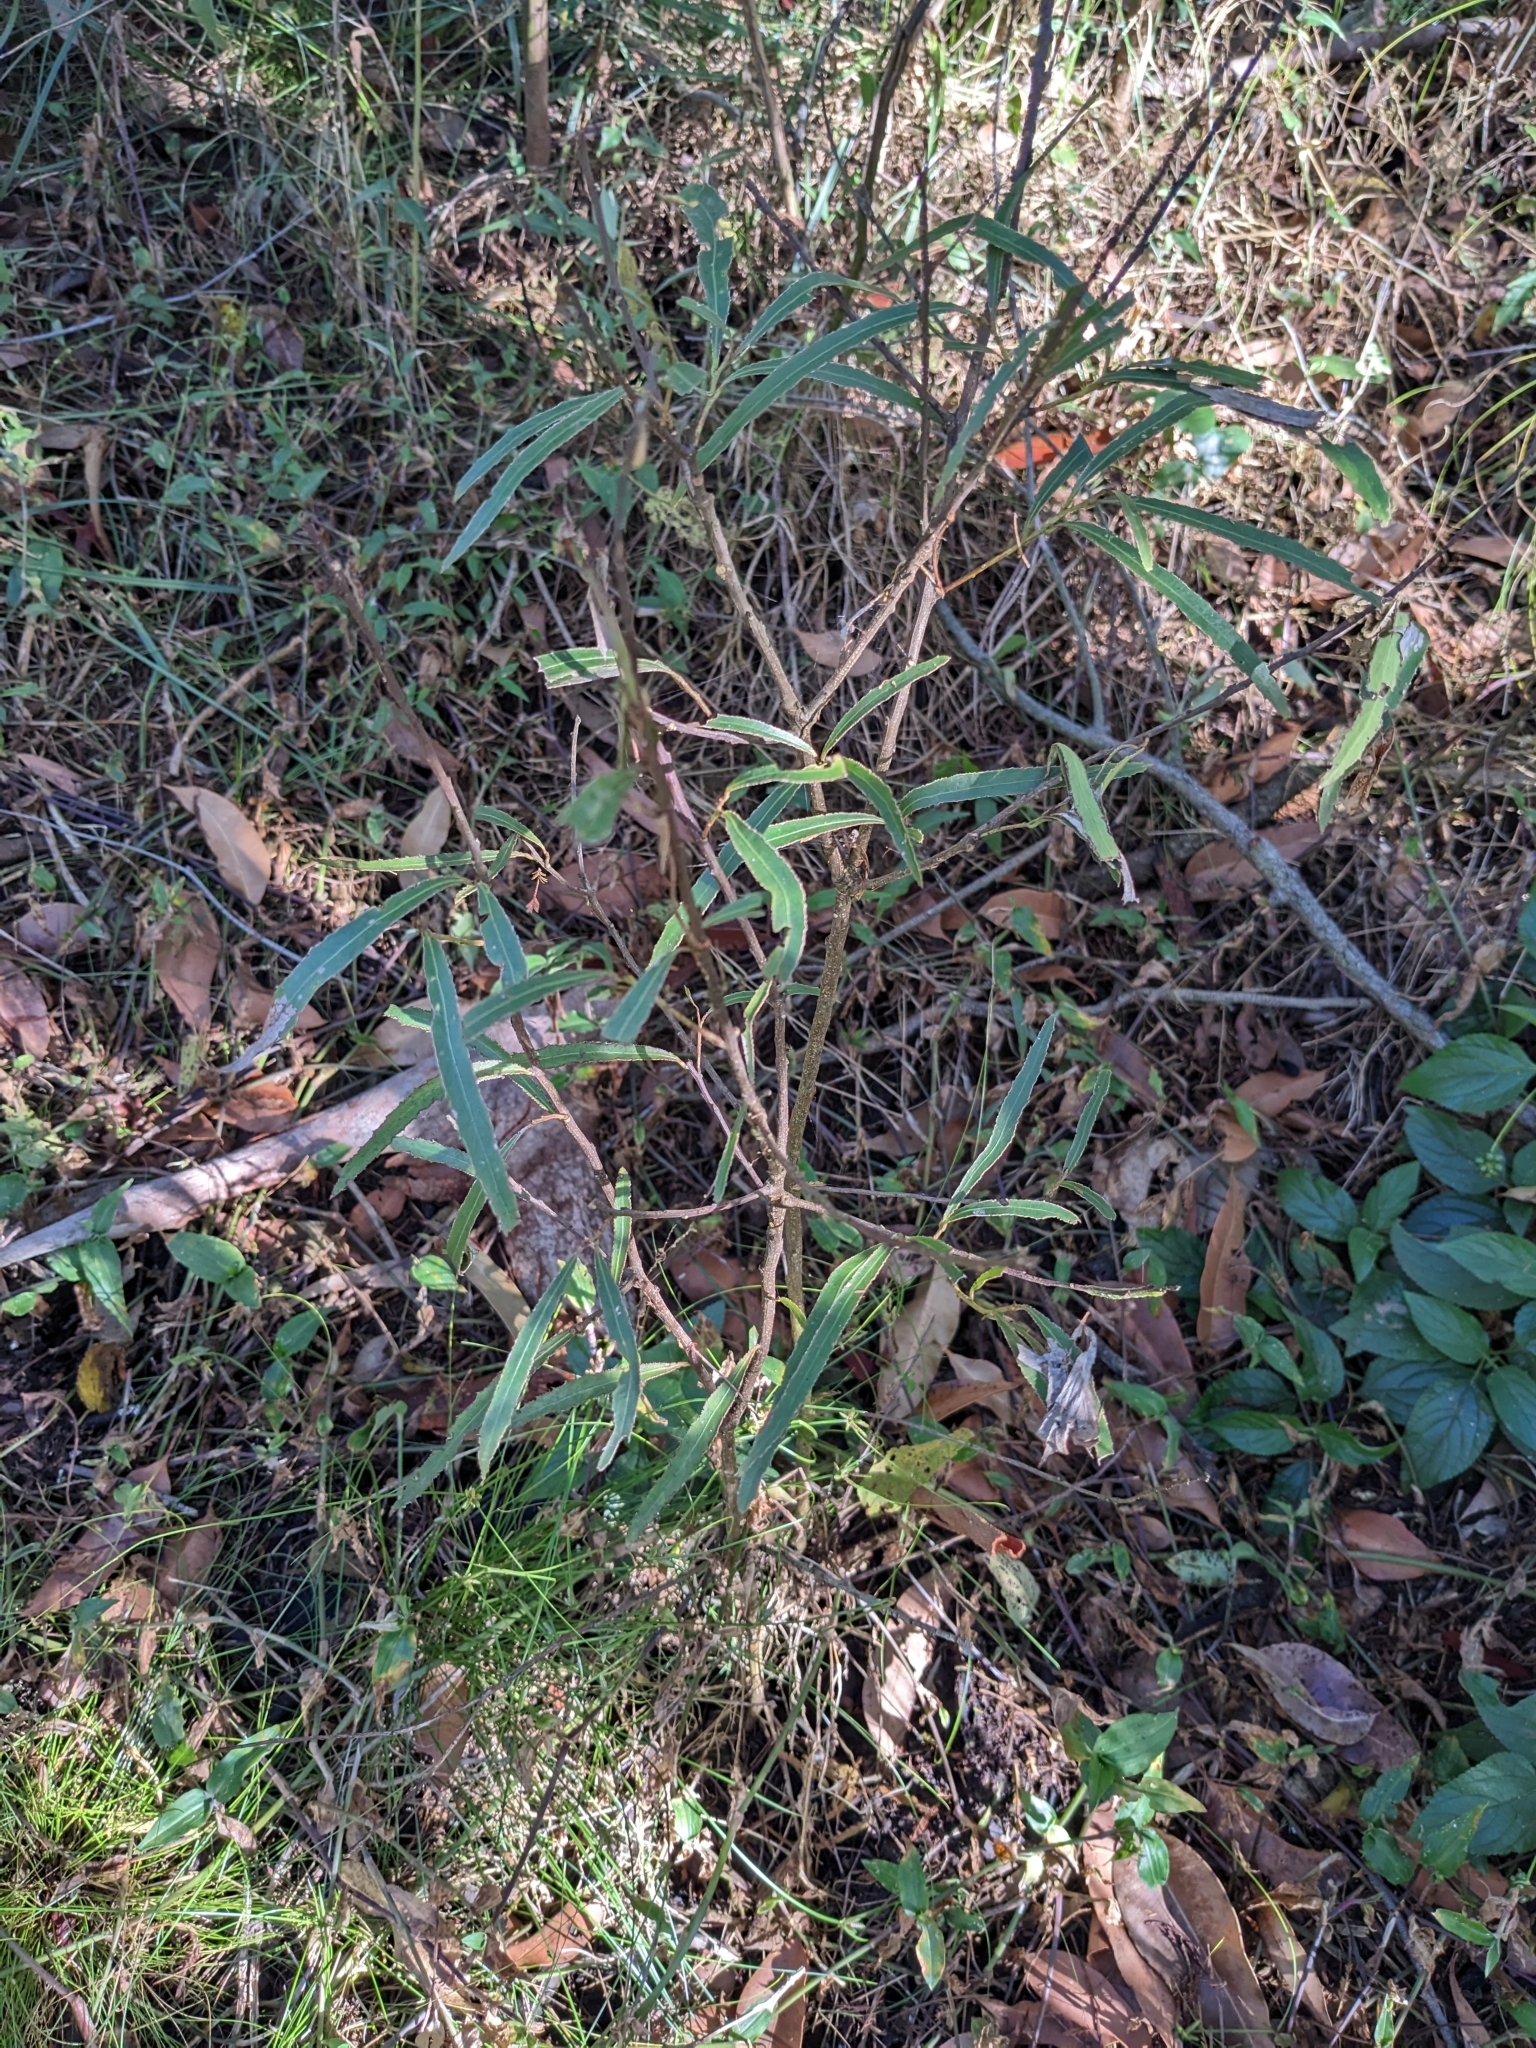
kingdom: Plantae
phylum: Tracheophyta
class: Magnoliopsida
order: Sapindales
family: Sapindaceae
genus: Atalaya
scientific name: Atalaya salicifolia
